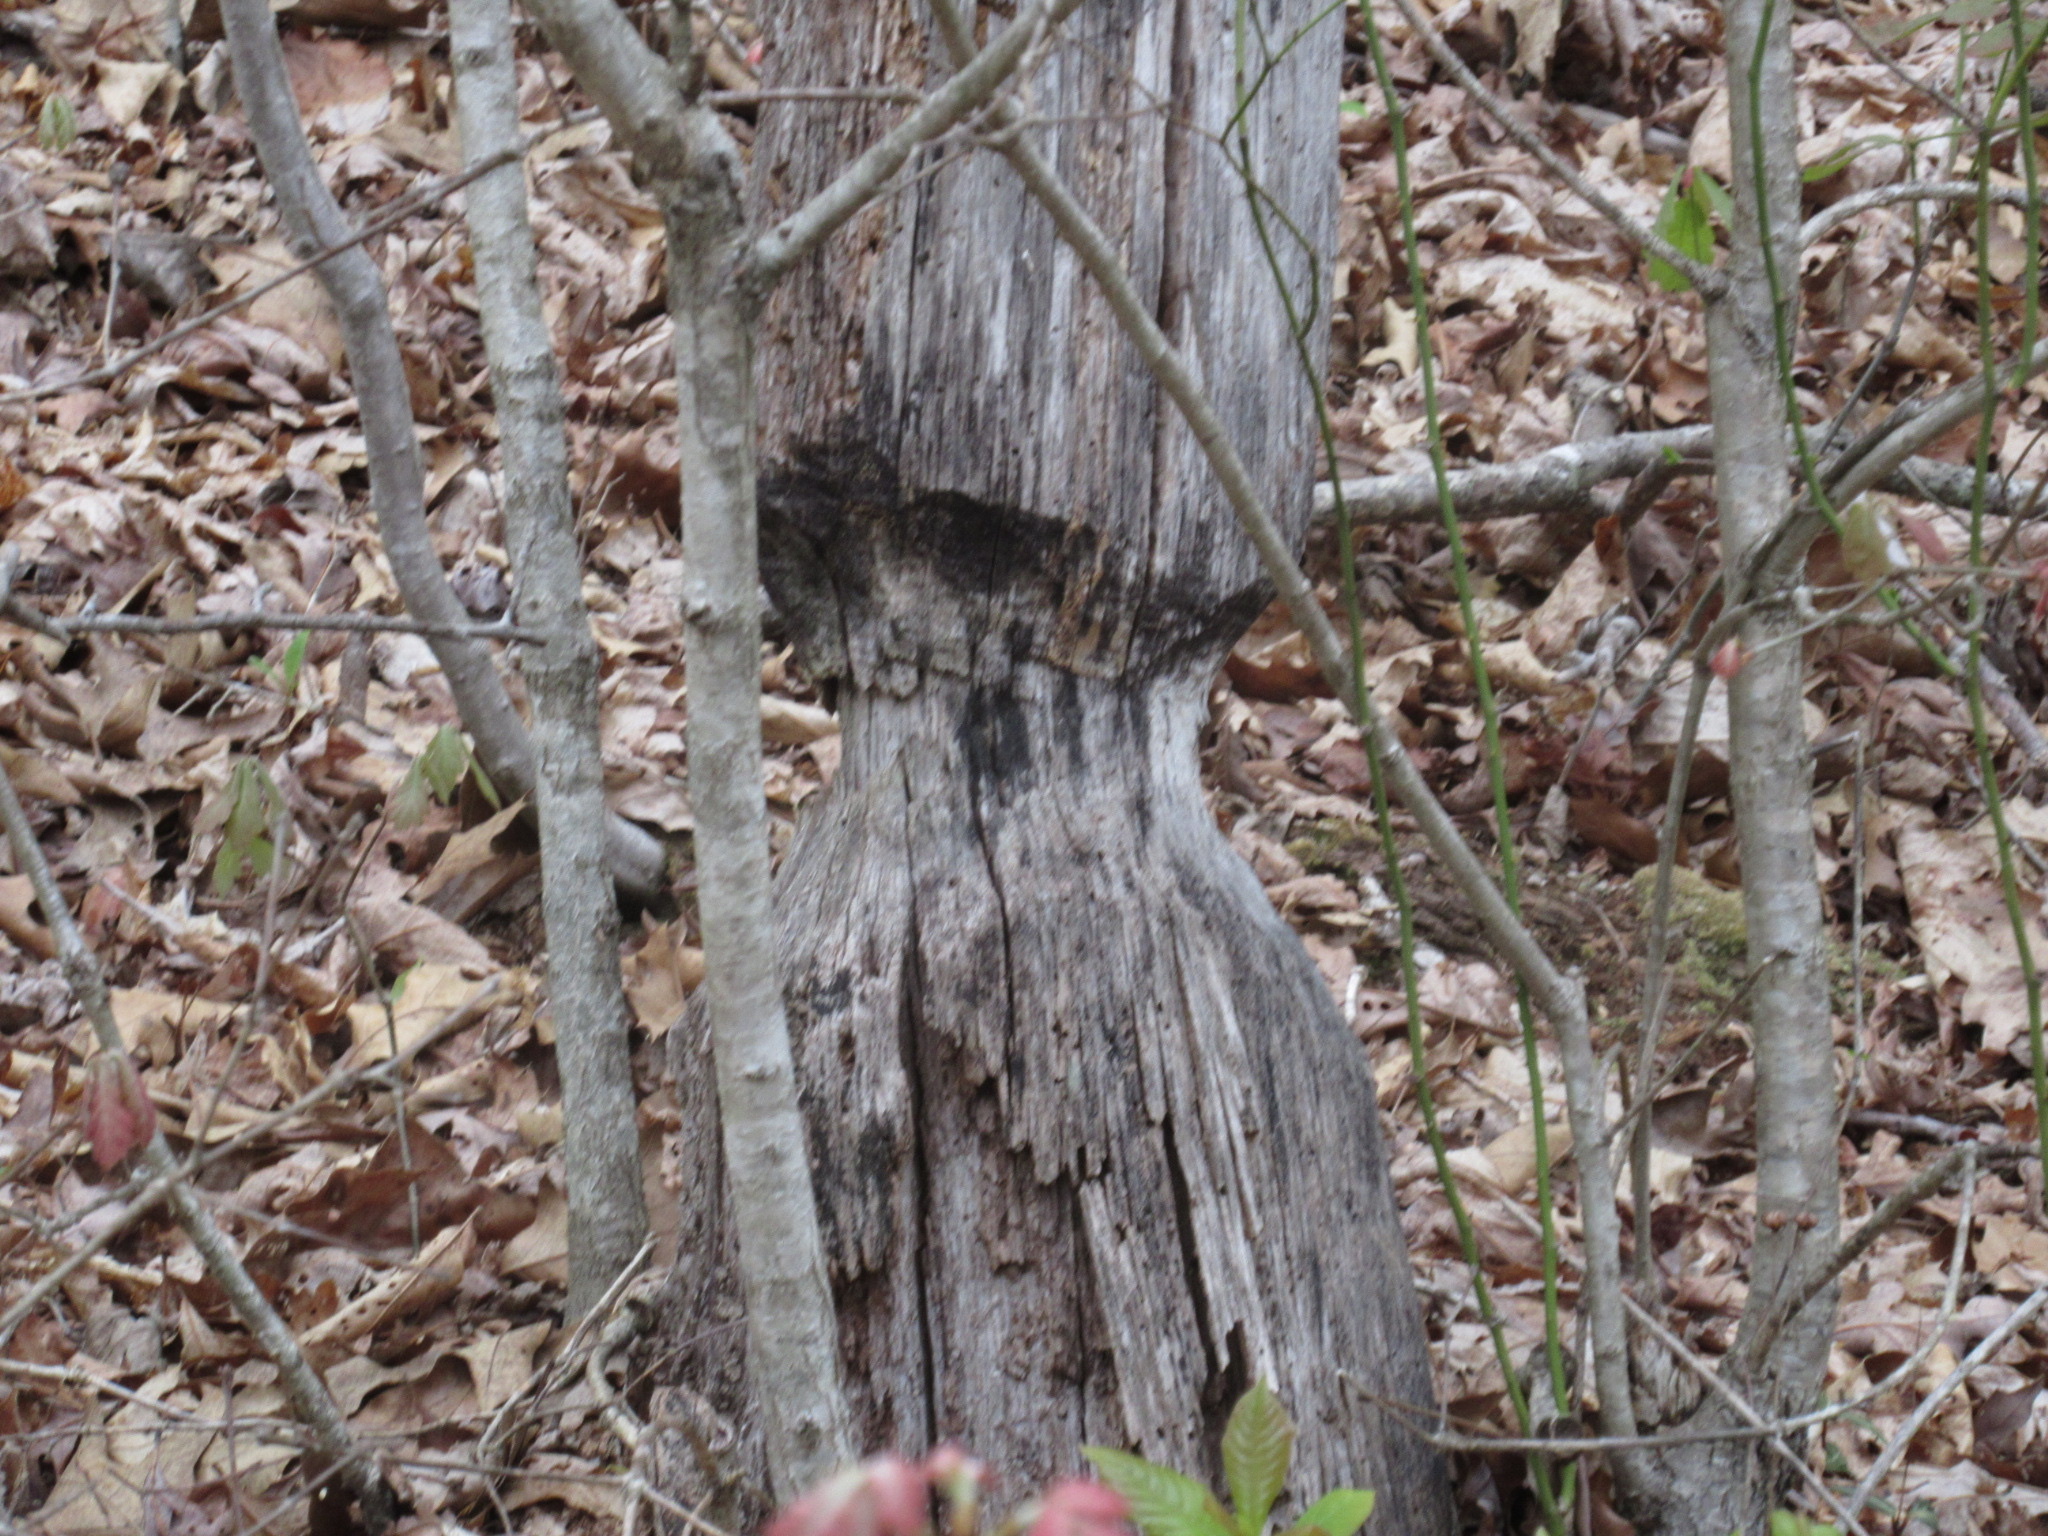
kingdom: Animalia
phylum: Chordata
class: Mammalia
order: Rodentia
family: Castoridae
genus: Castor
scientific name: Castor canadensis
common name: American beaver
